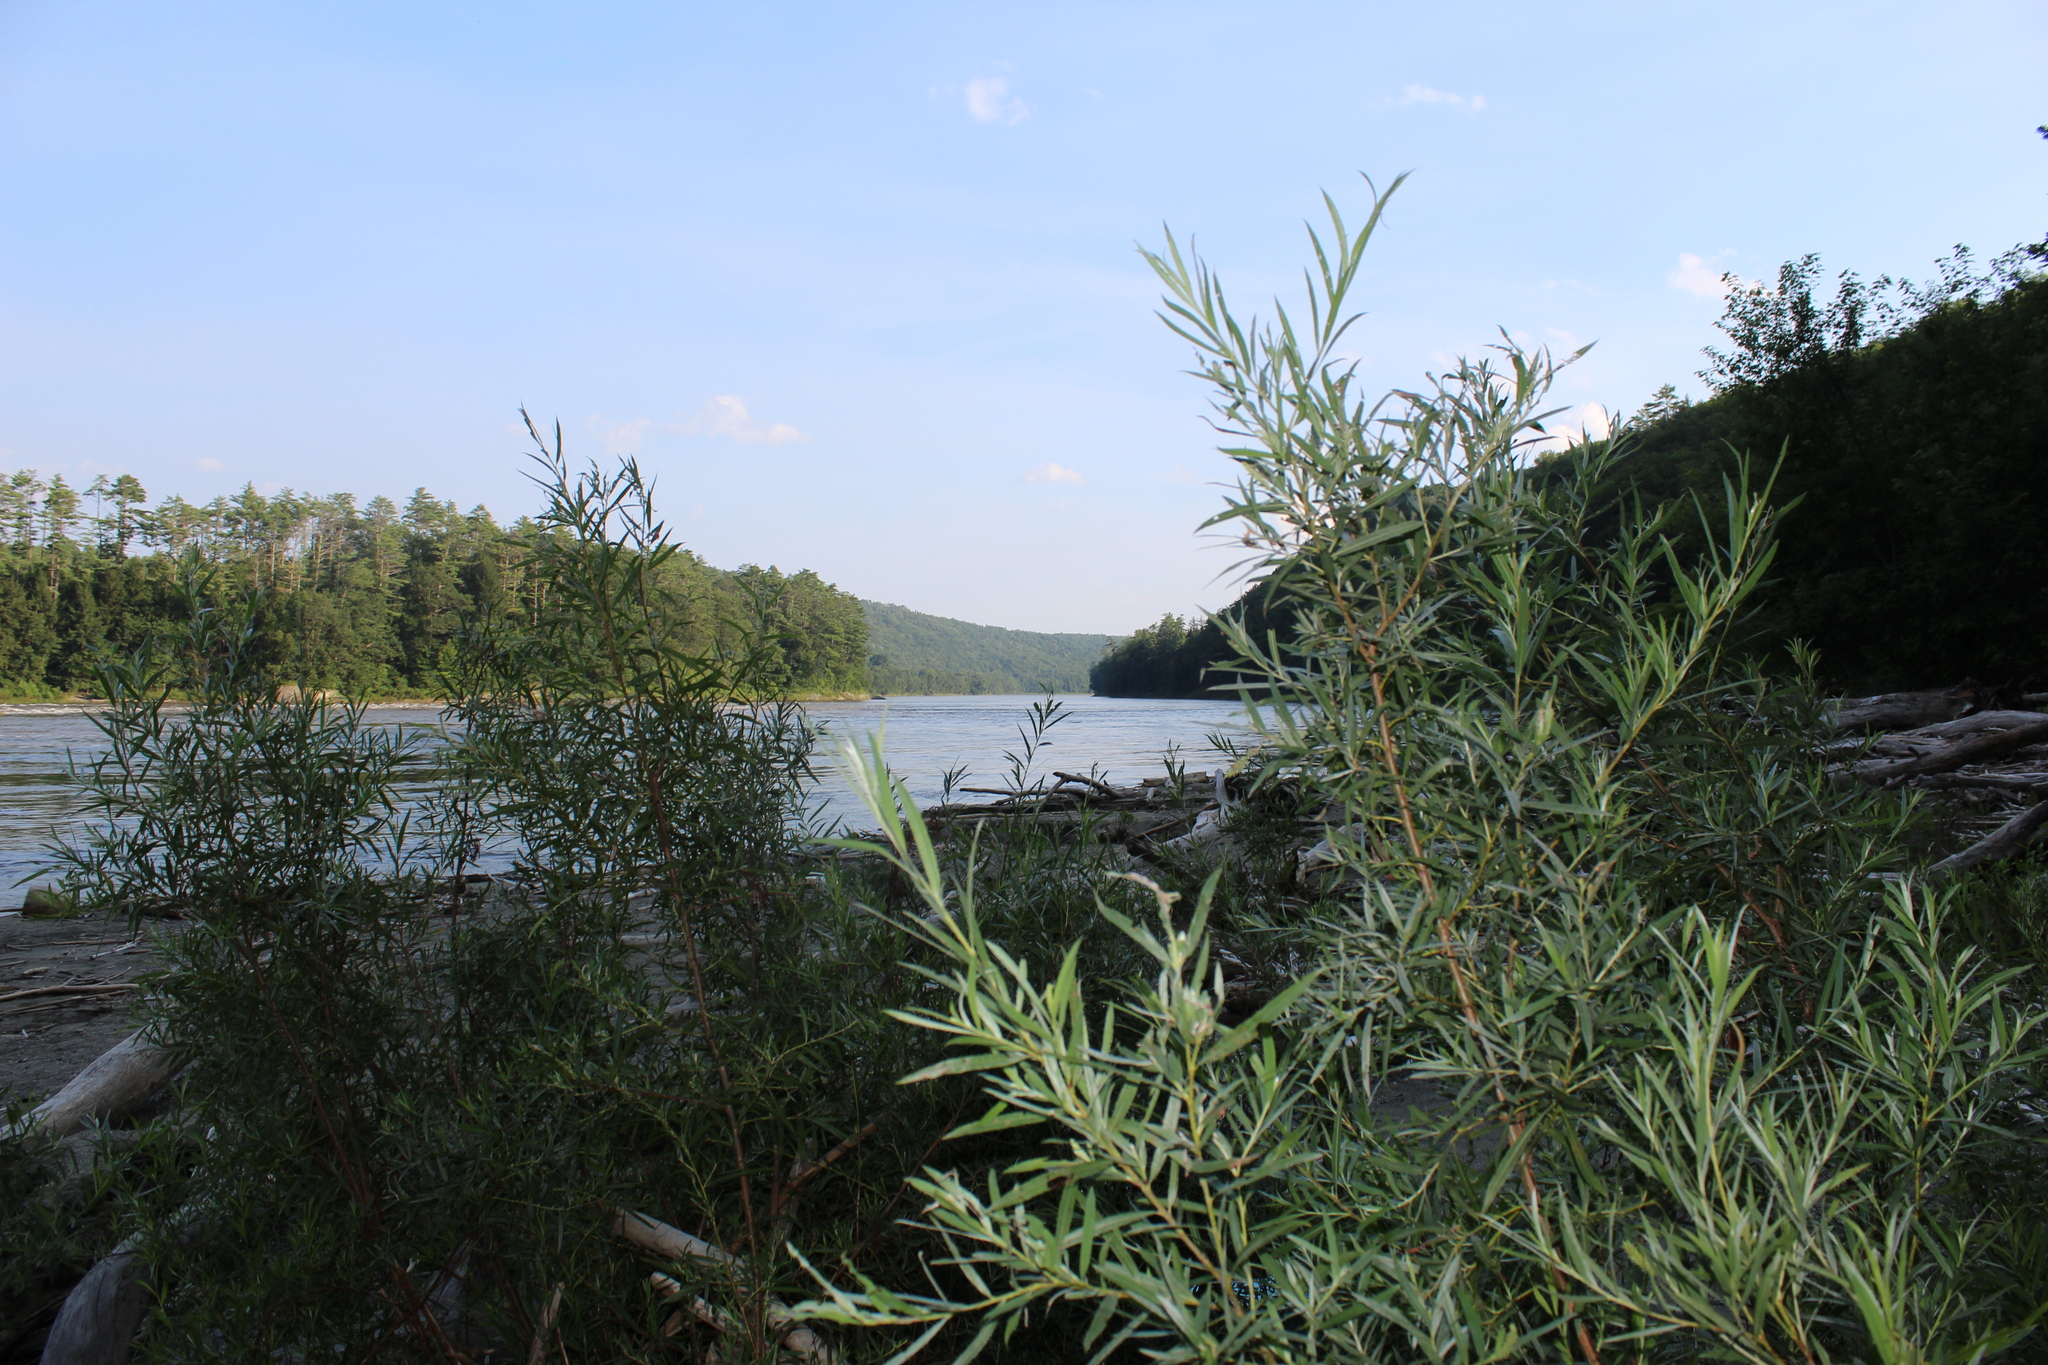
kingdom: Plantae
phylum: Tracheophyta
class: Magnoliopsida
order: Malpighiales
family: Salicaceae
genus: Salix
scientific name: Salix interior
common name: Sandbar willow
